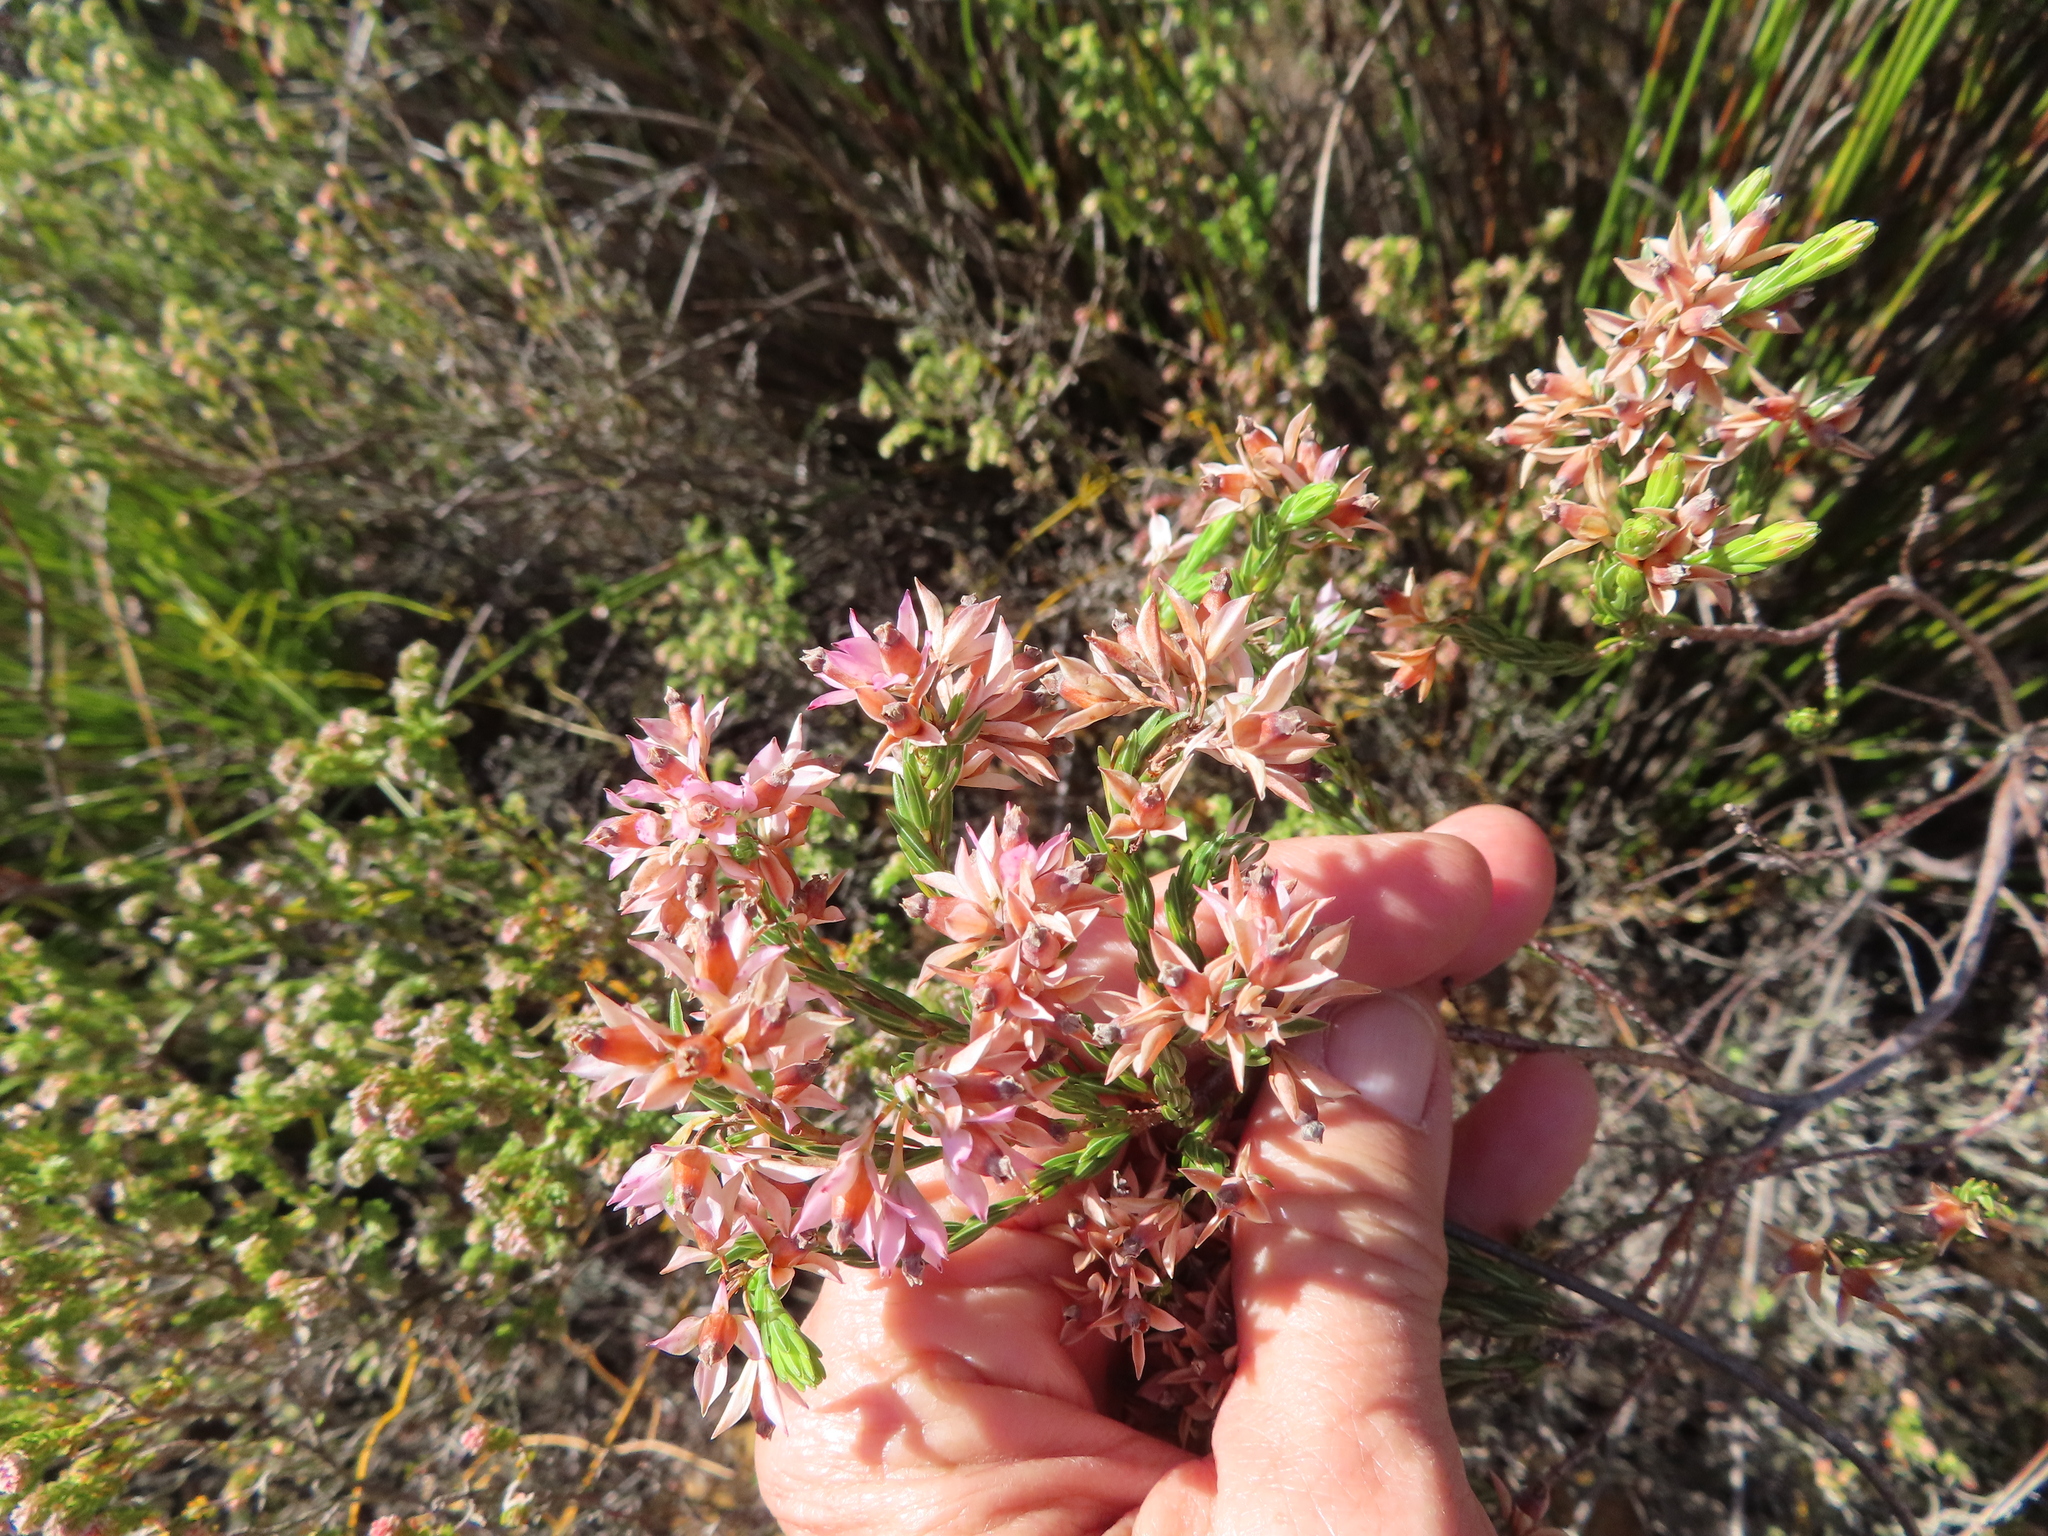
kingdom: Plantae
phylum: Tracheophyta
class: Magnoliopsida
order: Ericales
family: Ericaceae
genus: Erica
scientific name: Erica taxifolia
